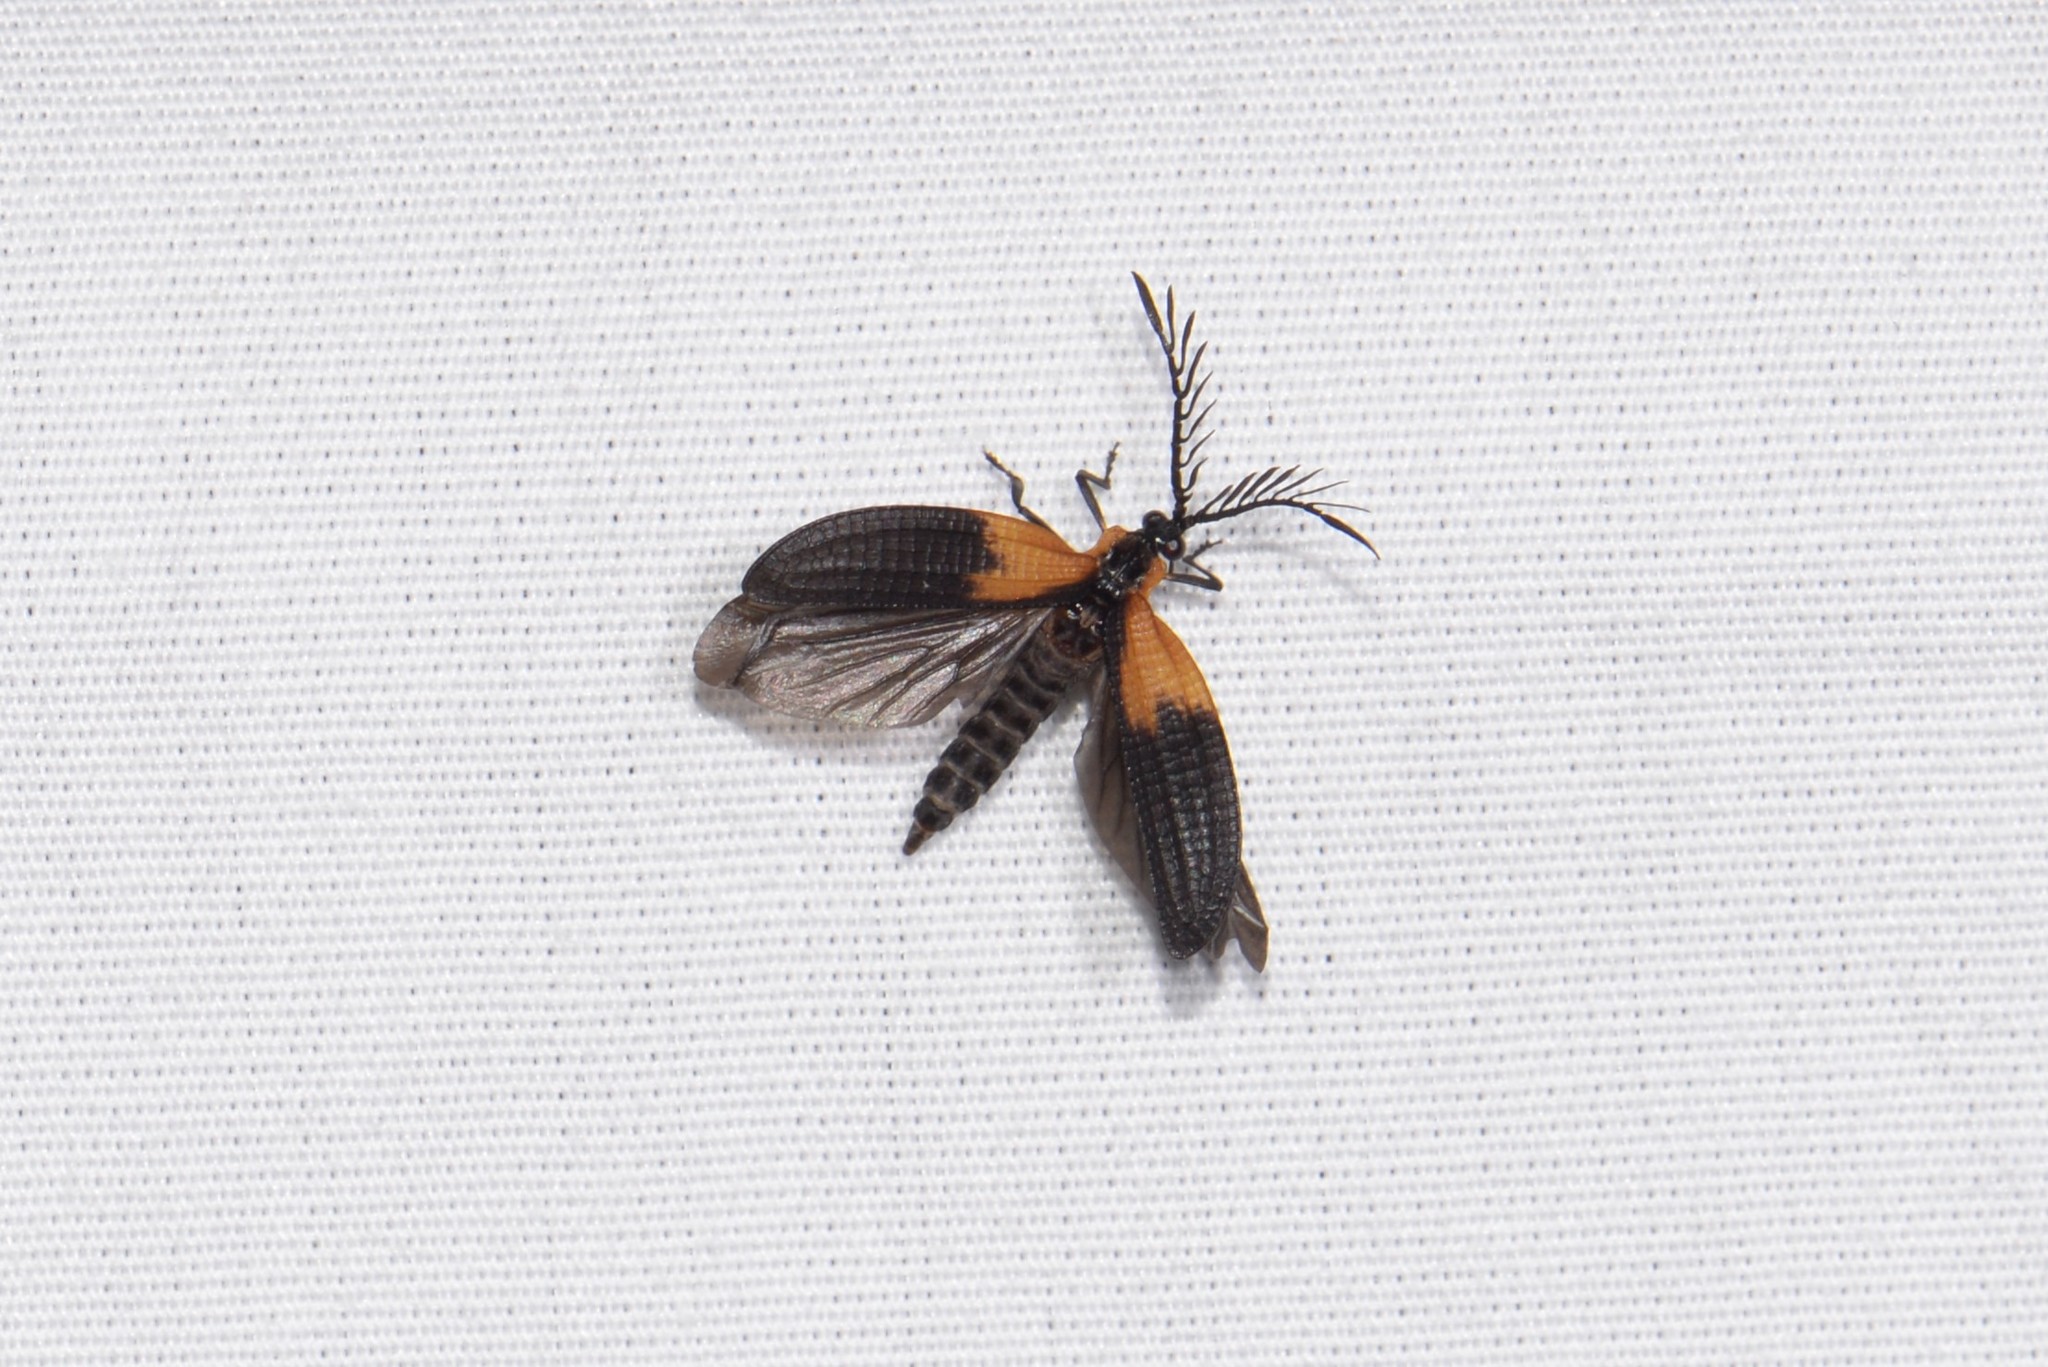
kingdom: Animalia
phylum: Arthropoda
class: Insecta
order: Coleoptera
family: Lycidae
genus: Caenia
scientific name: Caenia dimidiata
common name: Terminal net-winged beetle
